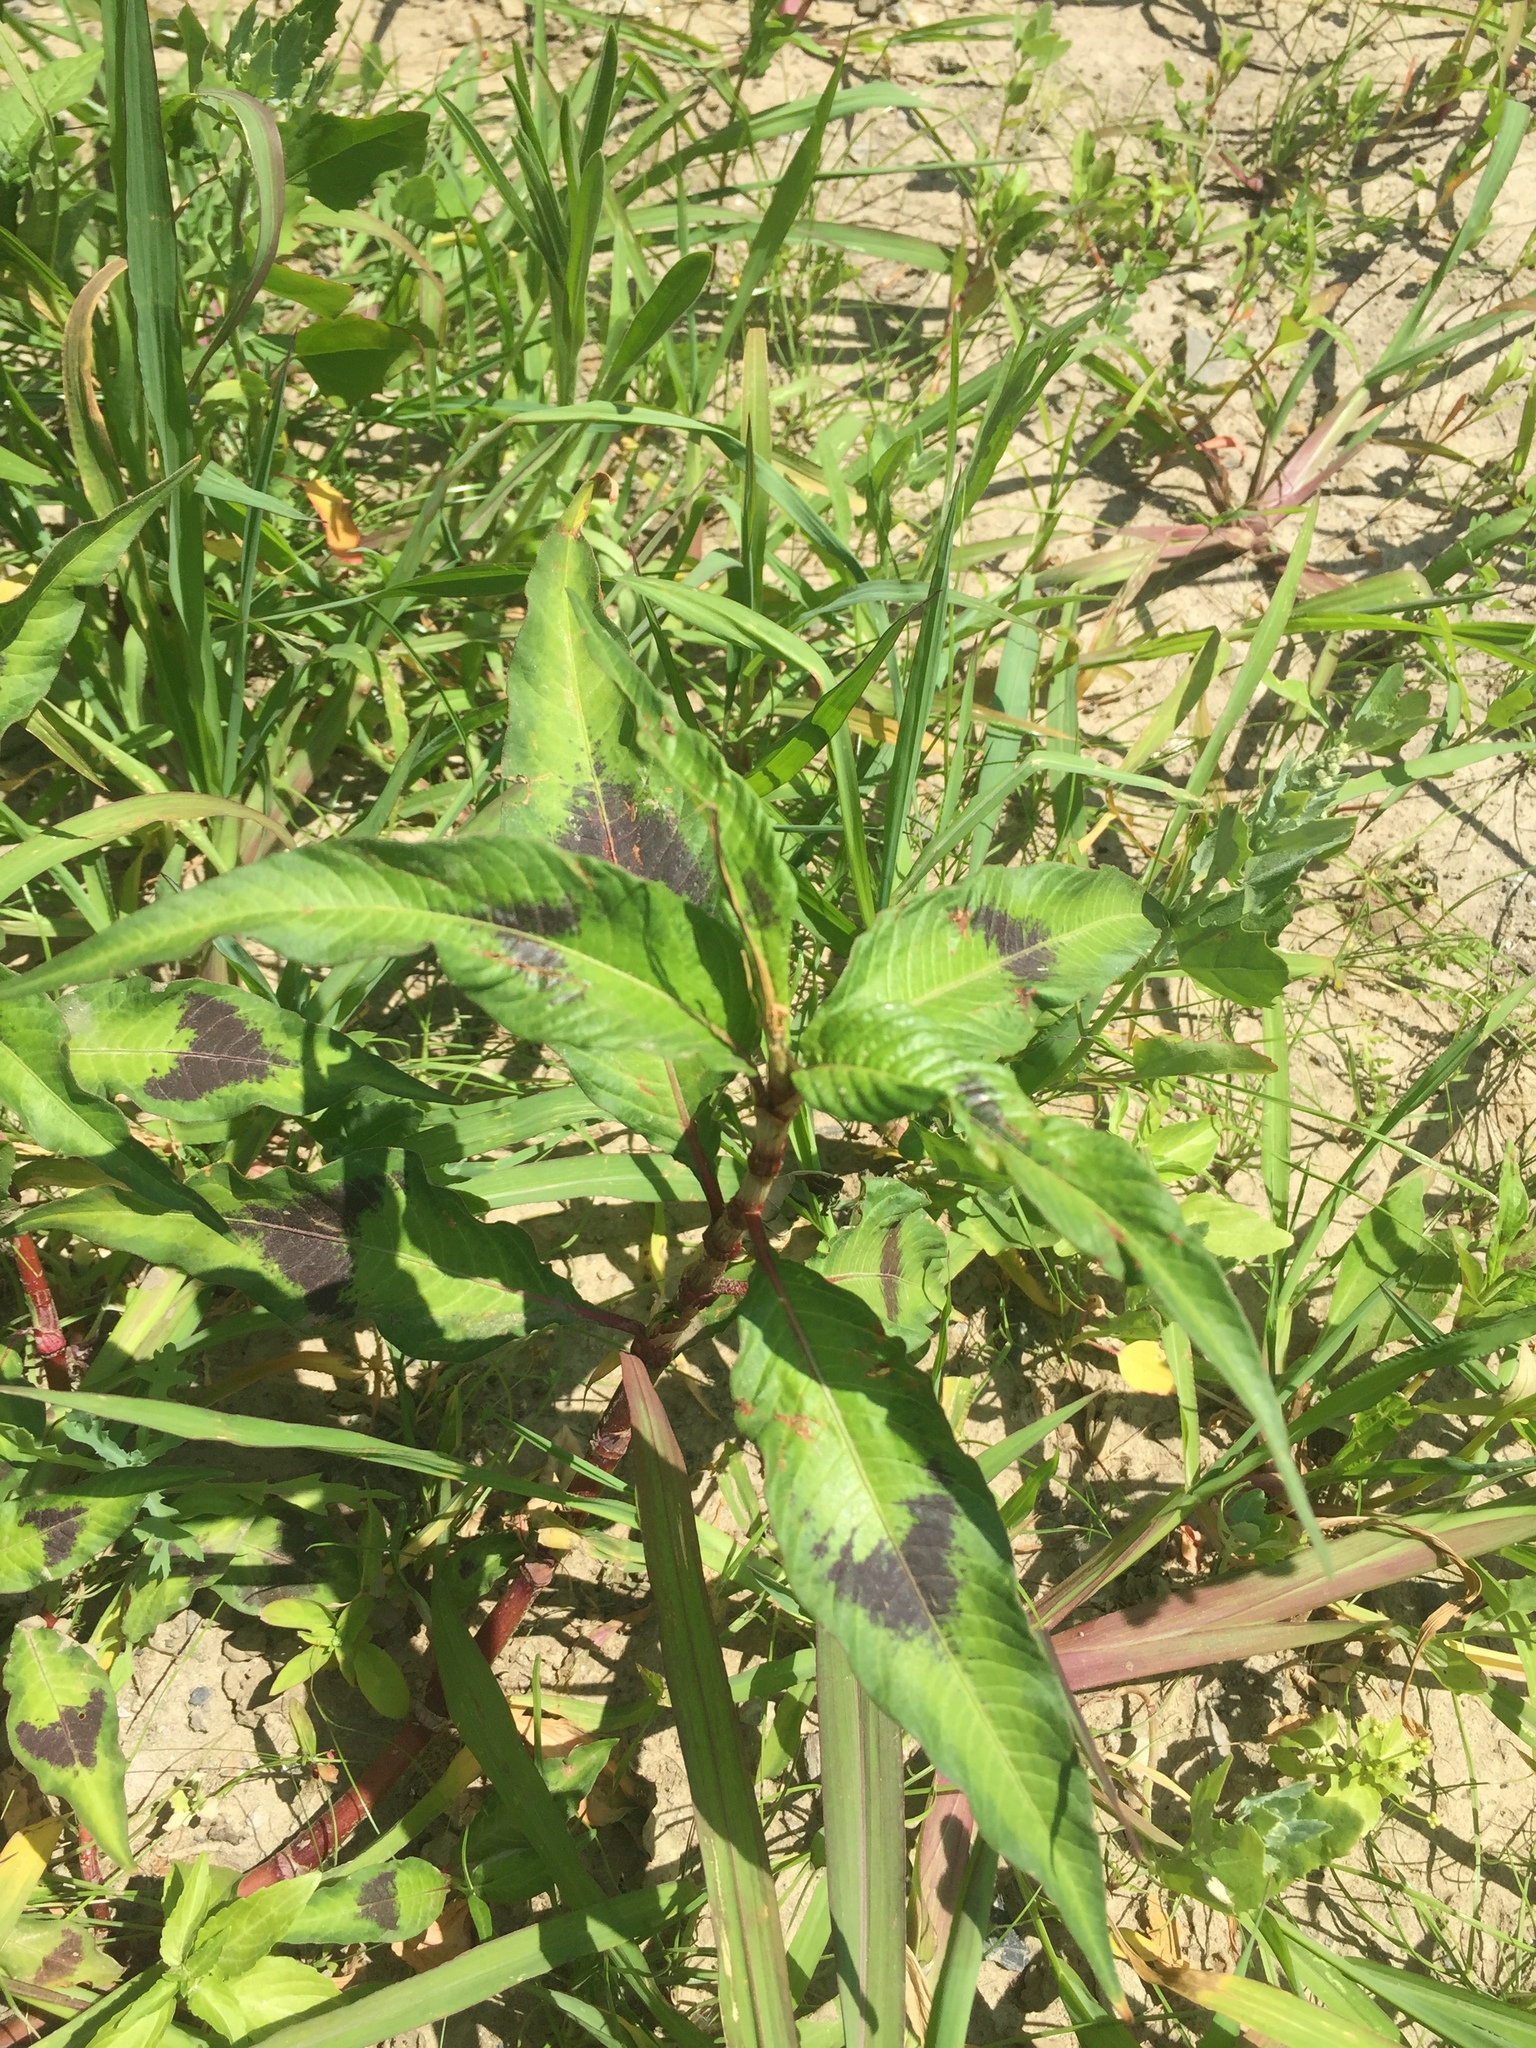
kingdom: Plantae
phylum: Tracheophyta
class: Magnoliopsida
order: Caryophyllales
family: Polygonaceae
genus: Persicaria
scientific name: Persicaria maculosa
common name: Redshank
